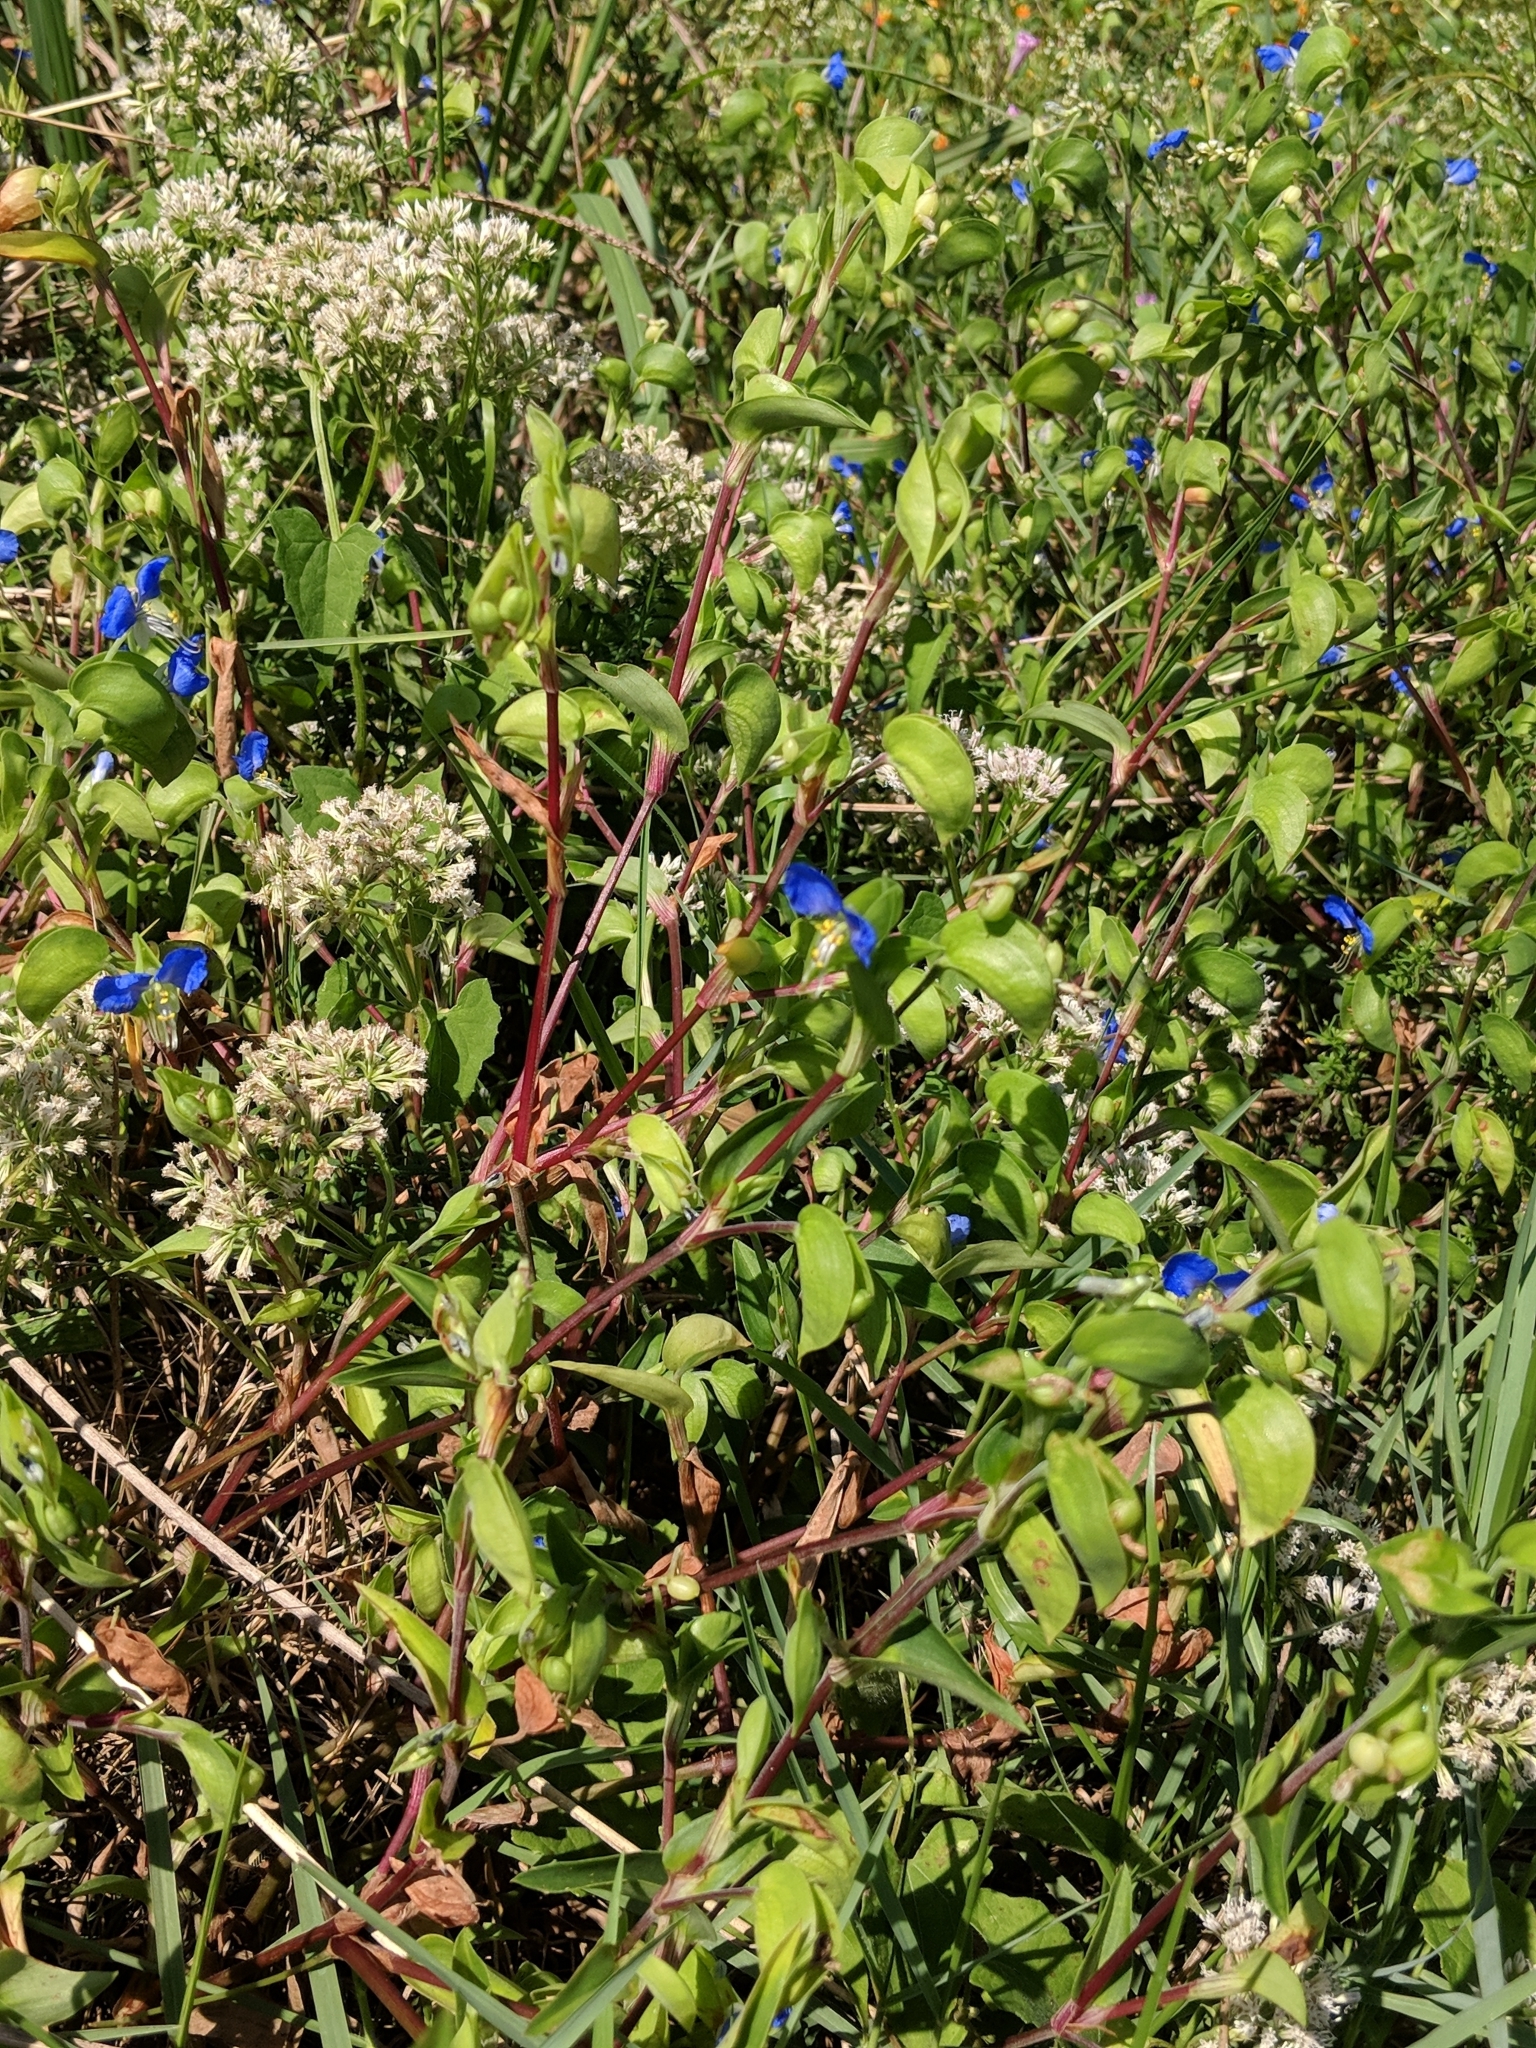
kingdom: Plantae
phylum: Tracheophyta
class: Liliopsida
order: Commelinales
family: Commelinaceae
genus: Commelina
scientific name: Commelina communis
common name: Asiatic dayflower
